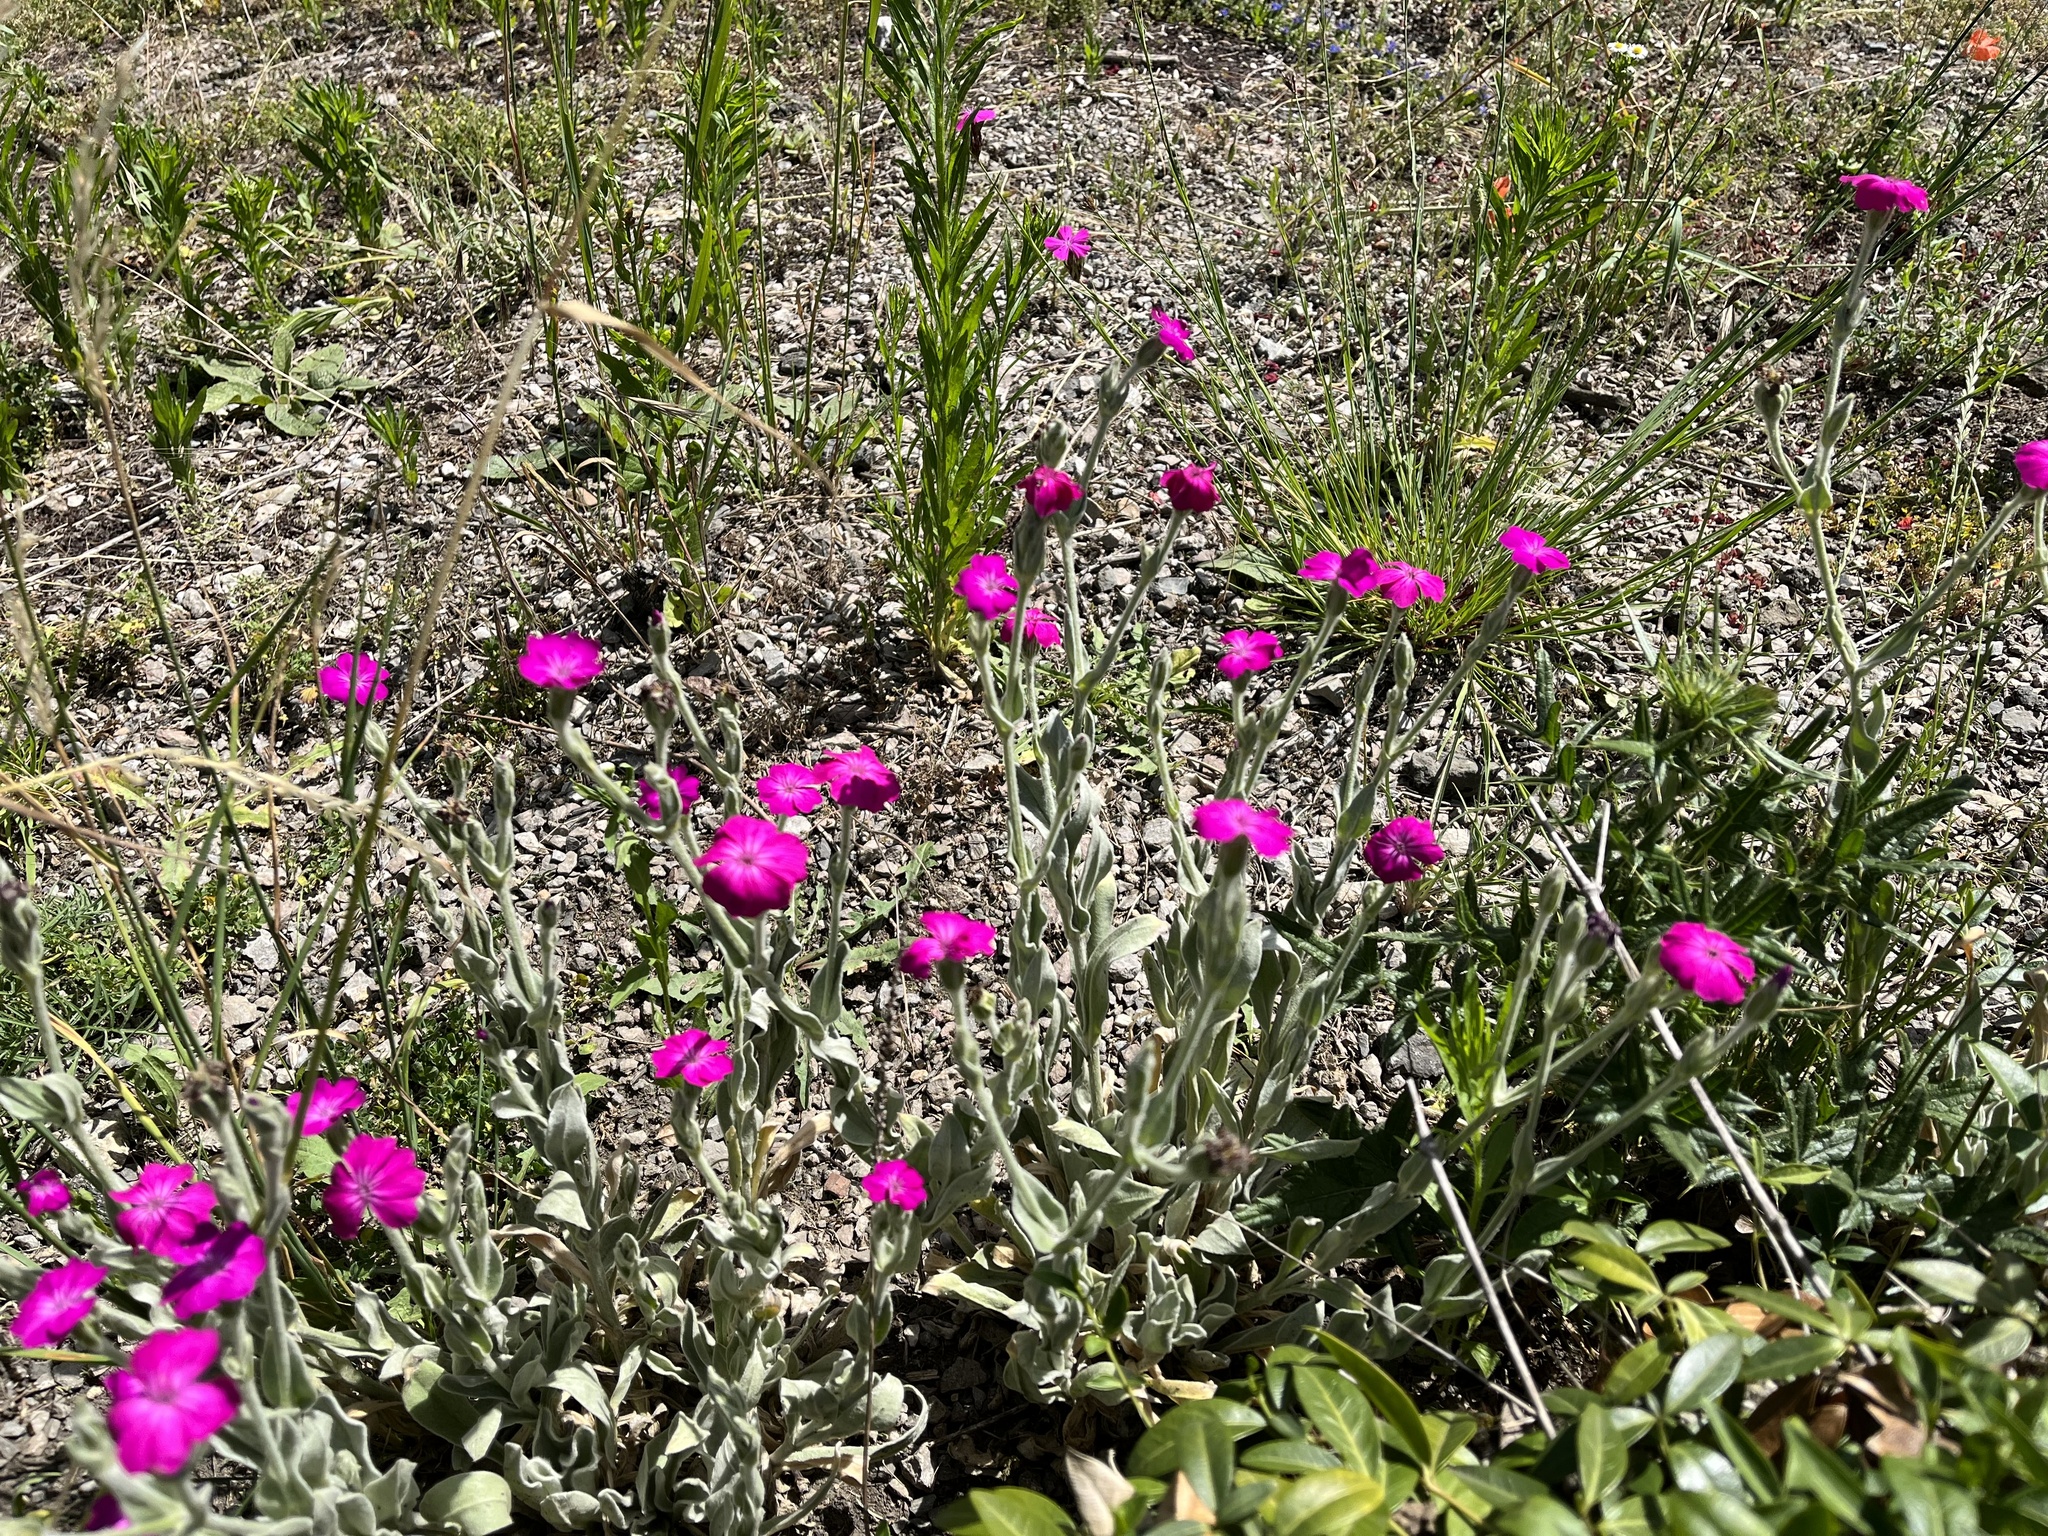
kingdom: Plantae
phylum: Tracheophyta
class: Magnoliopsida
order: Caryophyllales
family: Caryophyllaceae
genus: Silene
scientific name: Silene coronaria
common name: Rose campion
